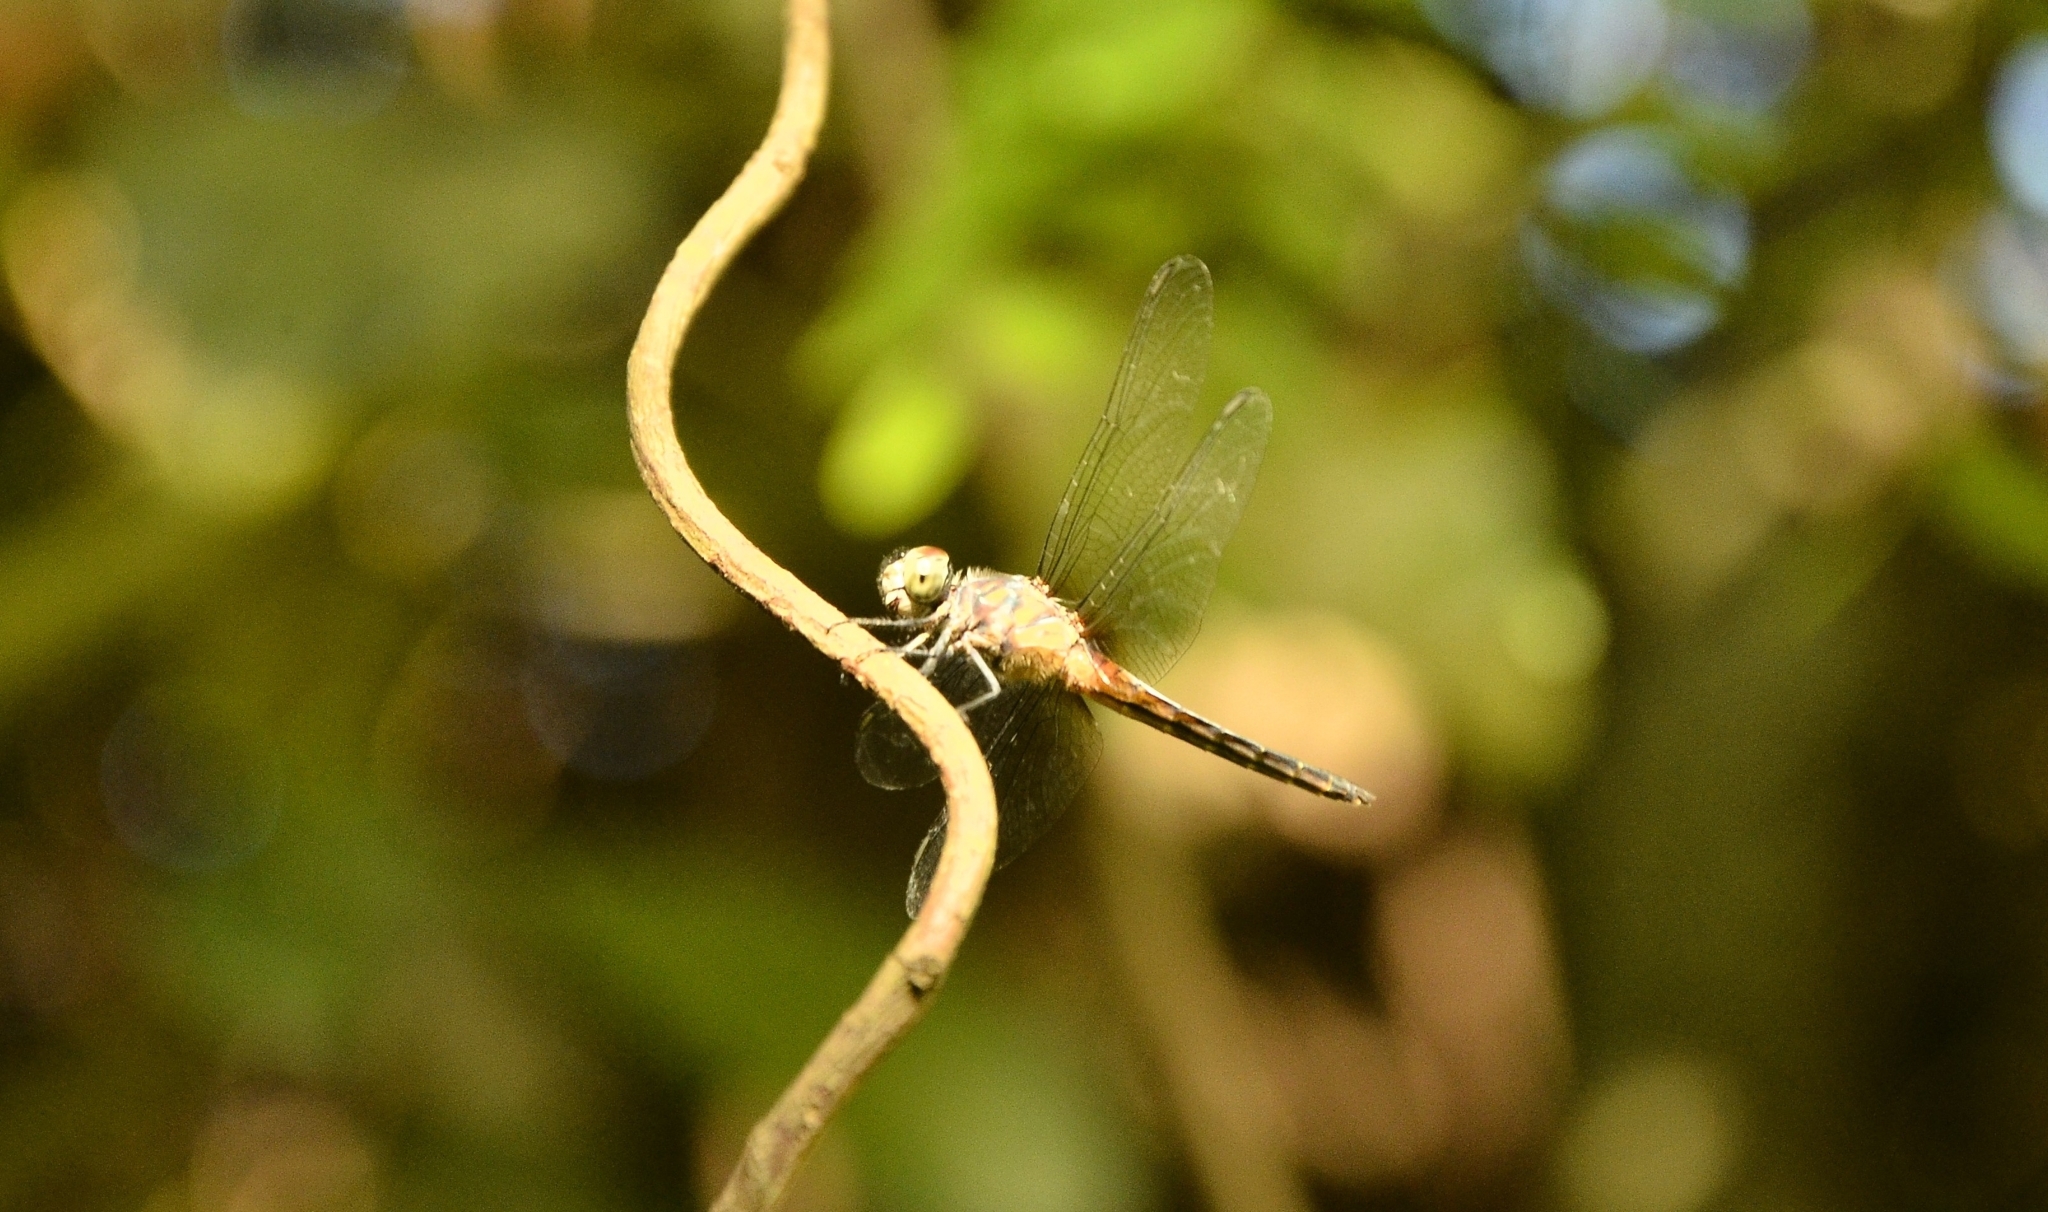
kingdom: Animalia
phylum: Arthropoda
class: Insecta
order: Odonata
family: Libellulidae
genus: Brachydiplax
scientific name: Brachydiplax chalybea
